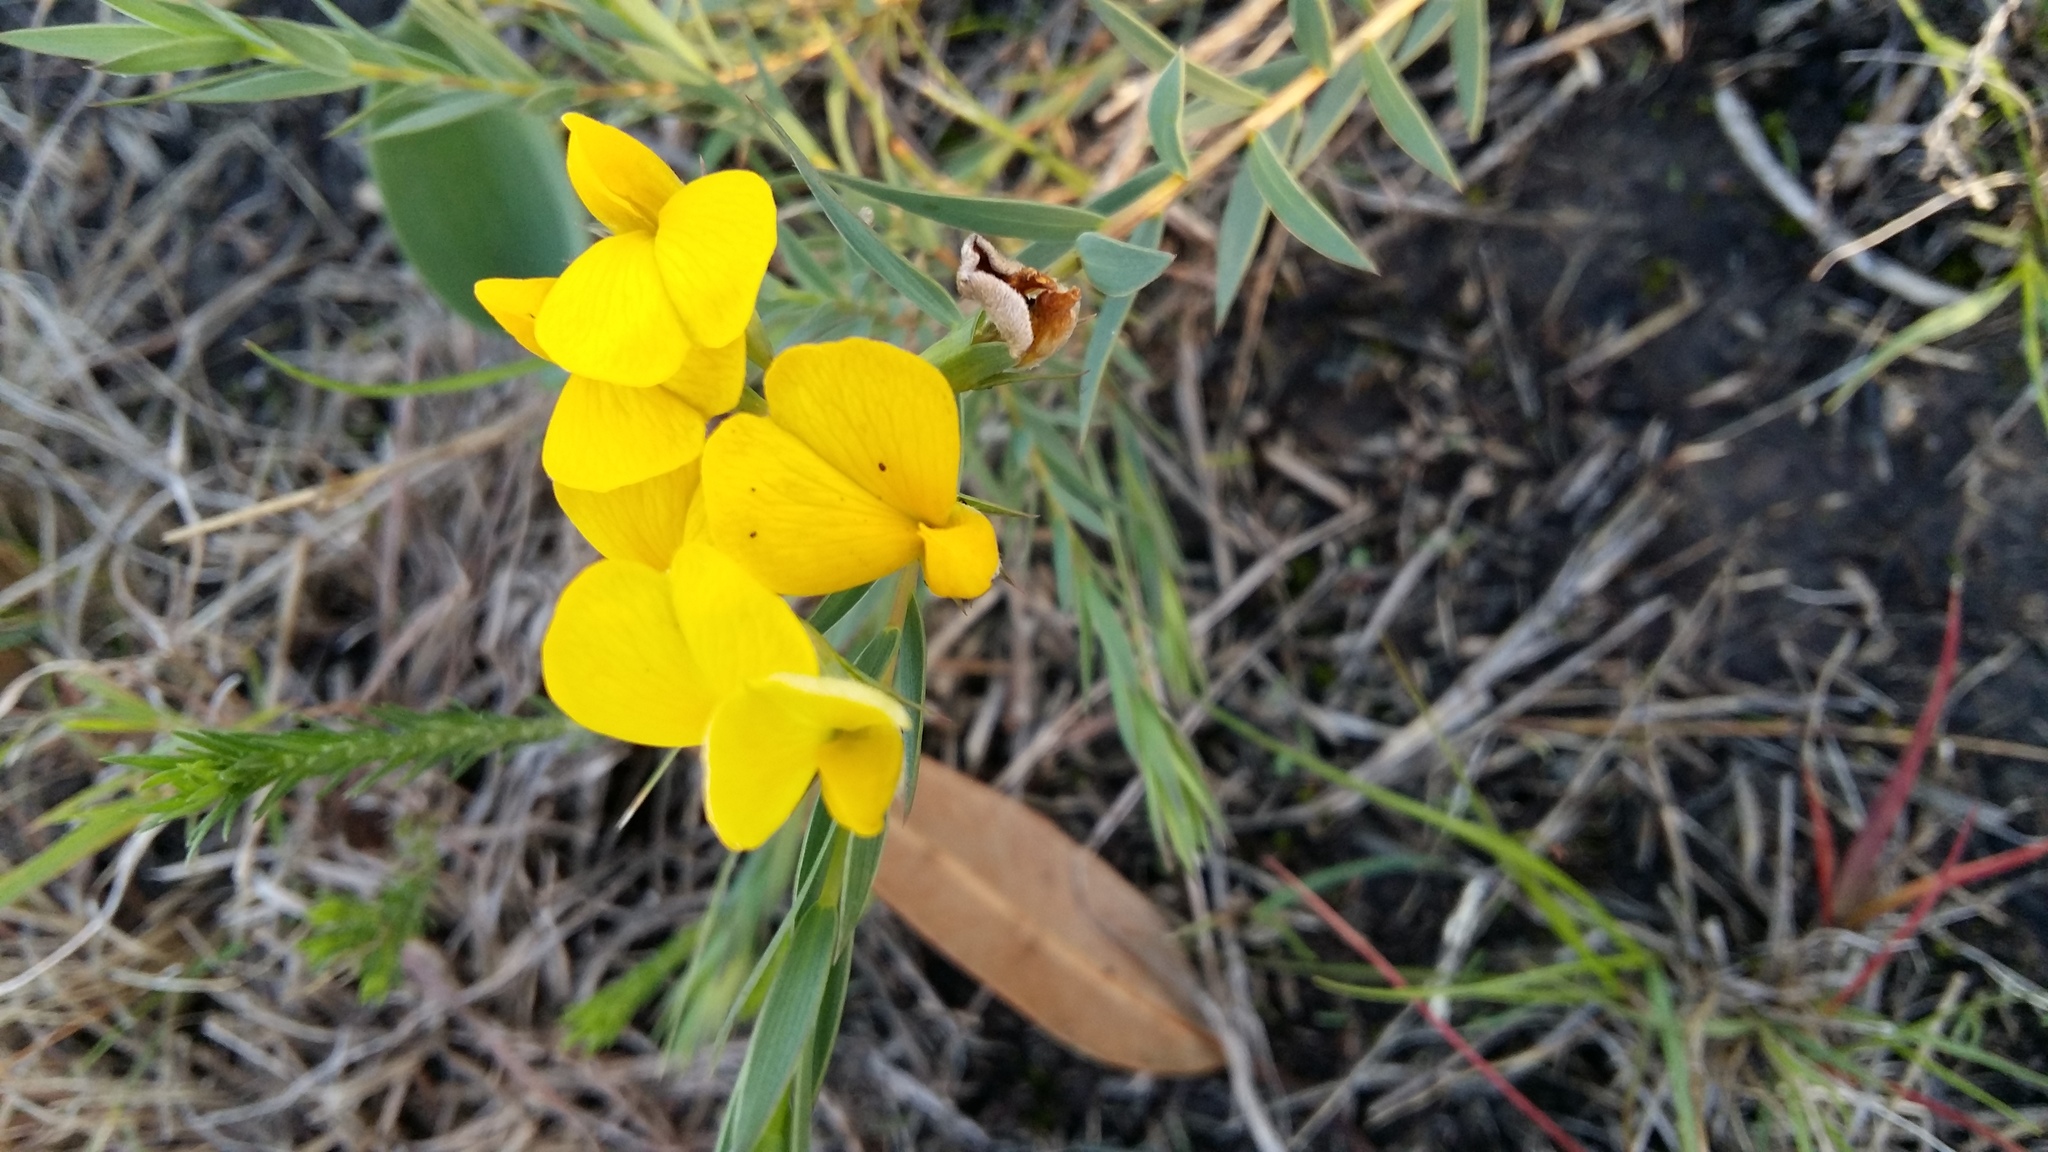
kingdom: Plantae
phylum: Tracheophyta
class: Magnoliopsida
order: Fabales
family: Fabaceae
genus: Aspalathus
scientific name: Aspalathus angustifolia
